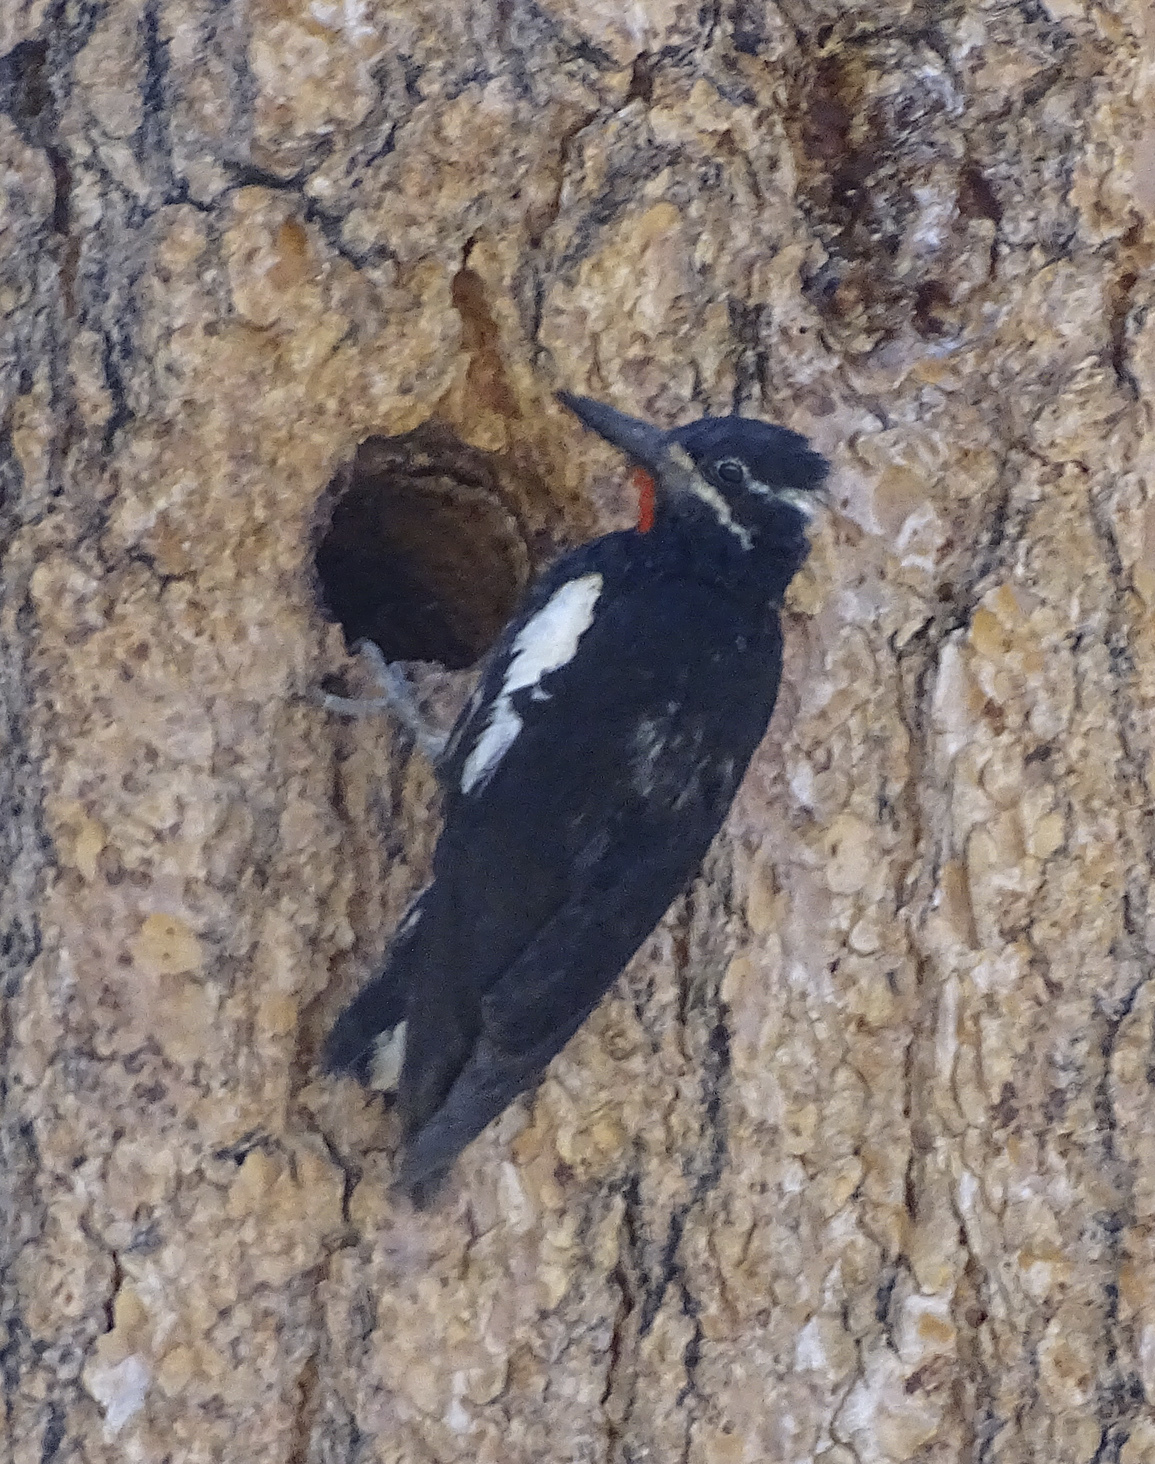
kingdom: Animalia
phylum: Chordata
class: Aves
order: Piciformes
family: Picidae
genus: Sphyrapicus
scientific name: Sphyrapicus thyroideus
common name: Williamson's sapsucker
